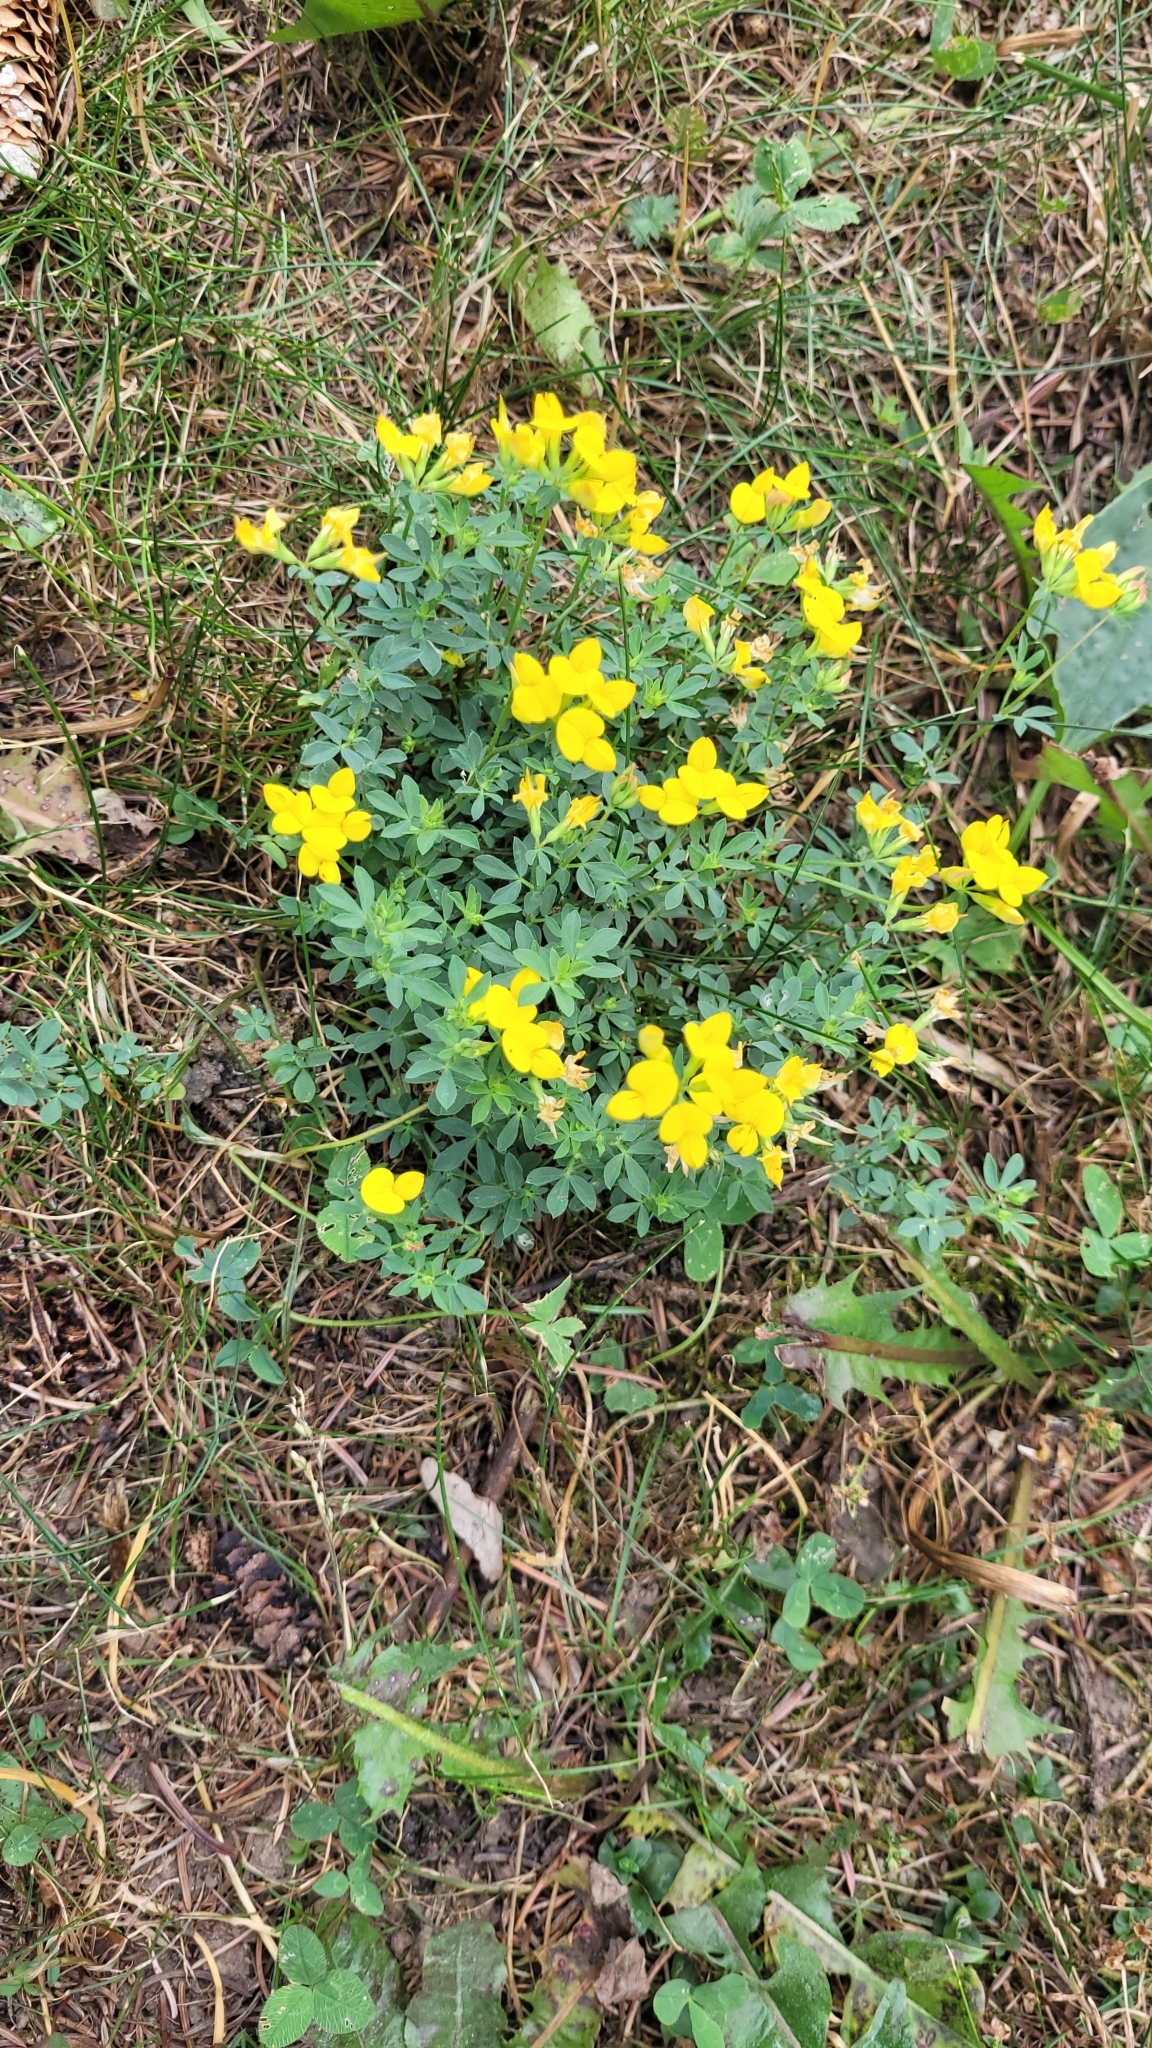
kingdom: Plantae
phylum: Tracheophyta
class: Magnoliopsida
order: Fabales
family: Fabaceae
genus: Lotus
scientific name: Lotus corniculatus
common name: Common bird's-foot-trefoil
